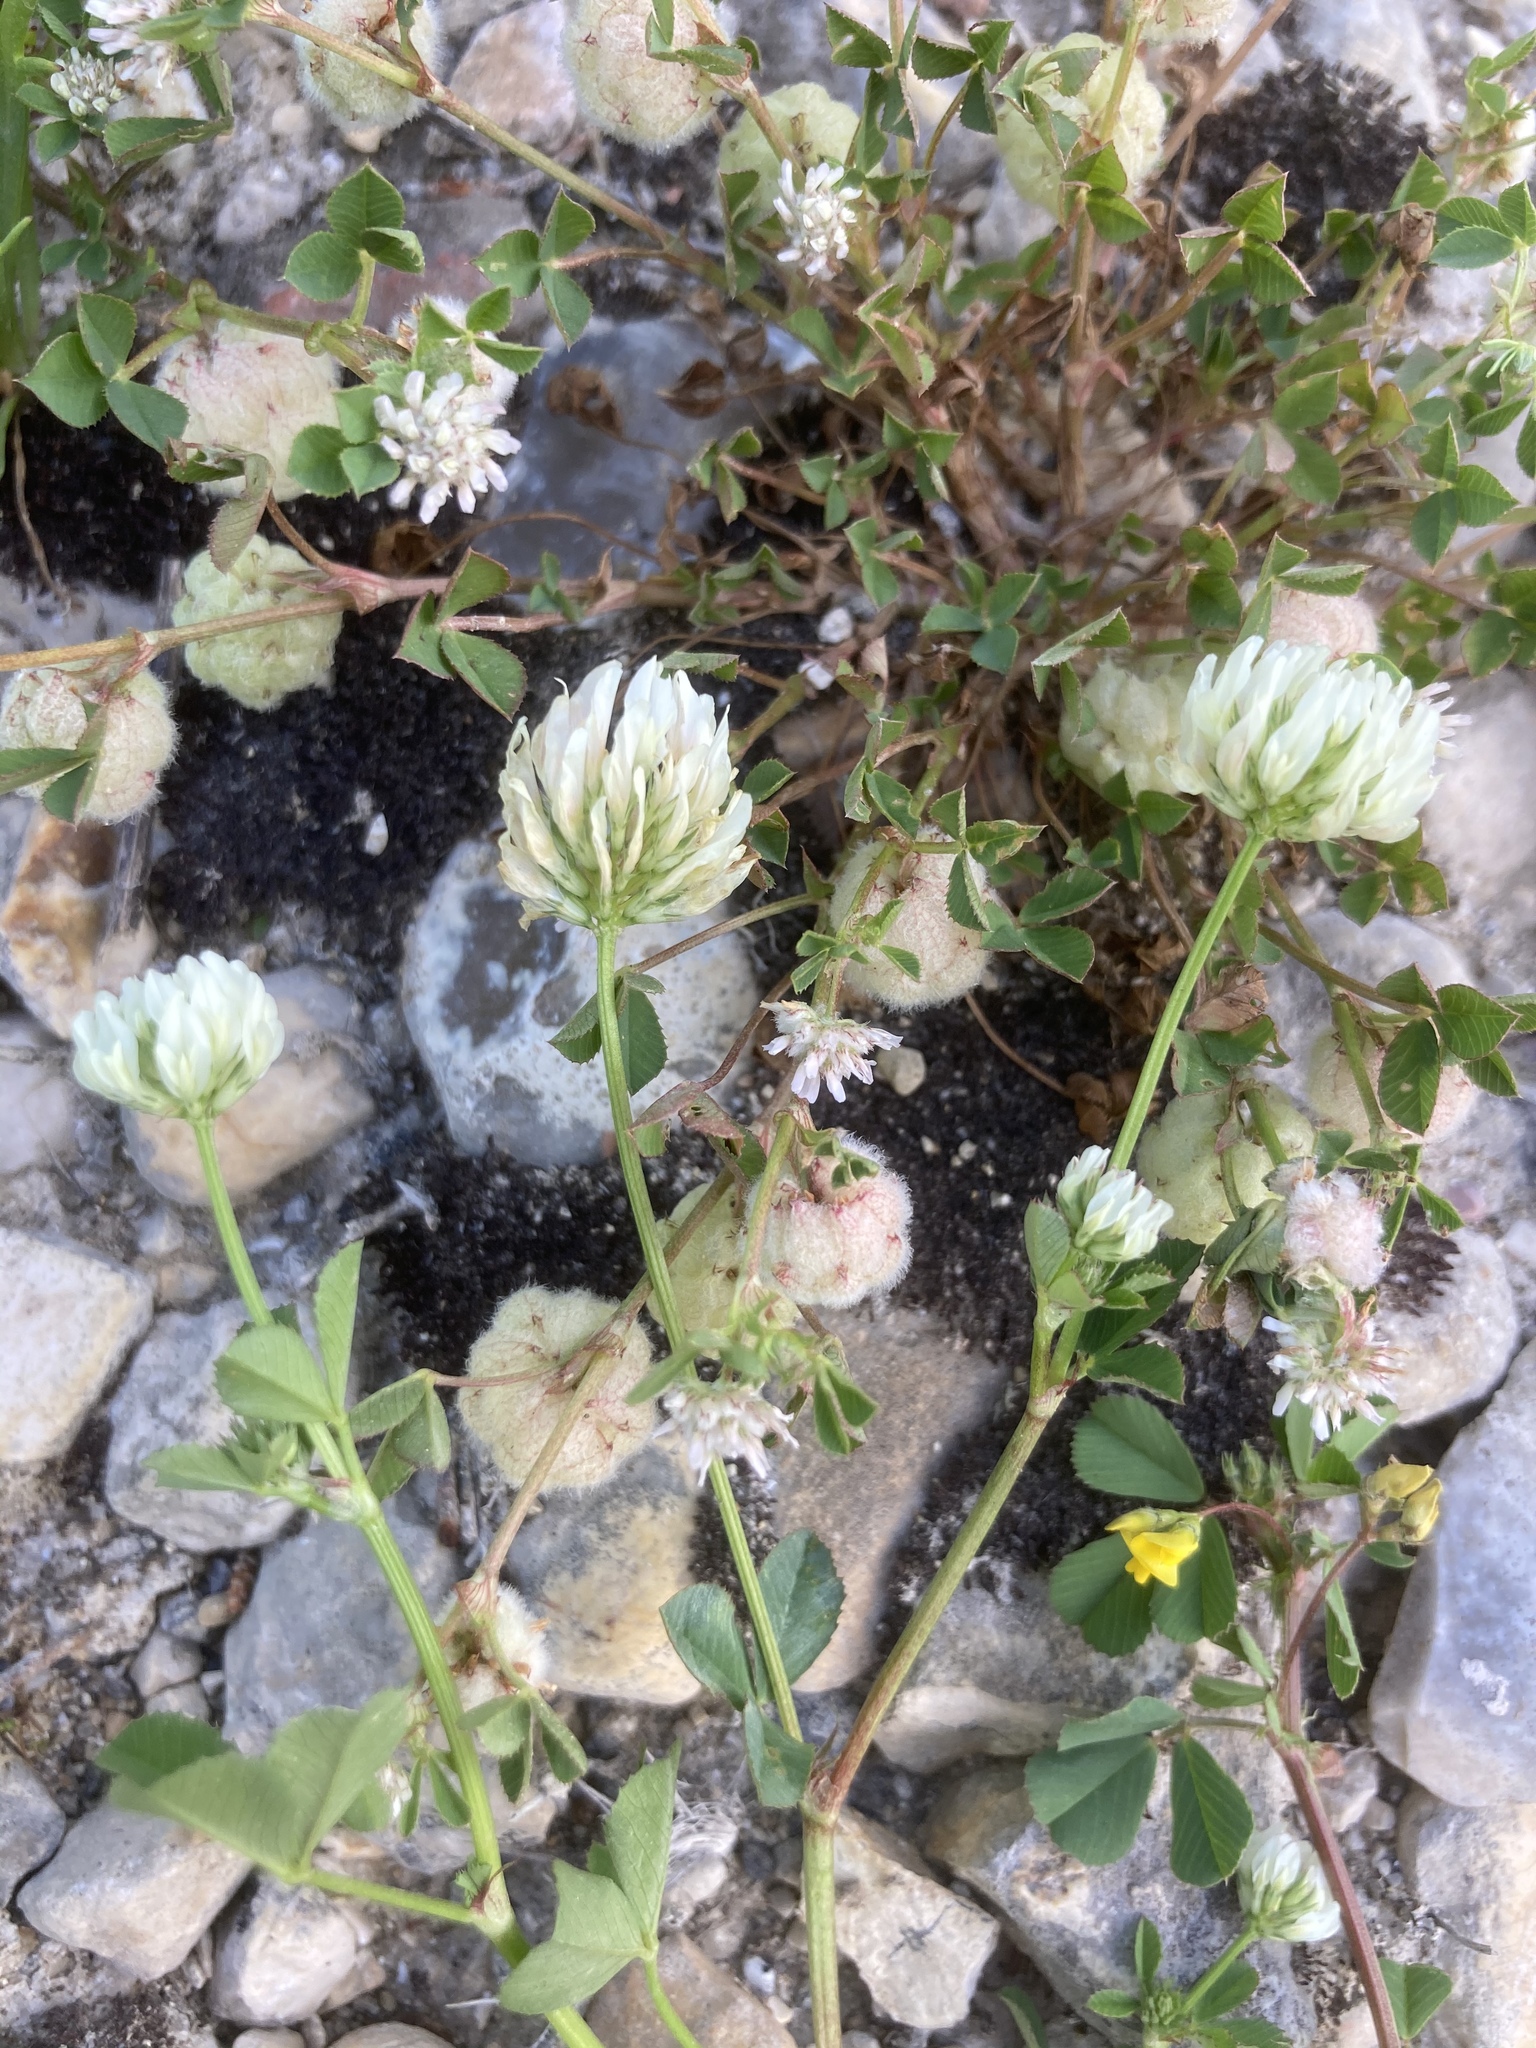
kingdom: Plantae
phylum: Tracheophyta
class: Magnoliopsida
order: Fabales
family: Fabaceae
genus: Medicago
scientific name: Medicago polymorpha
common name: Burclover
